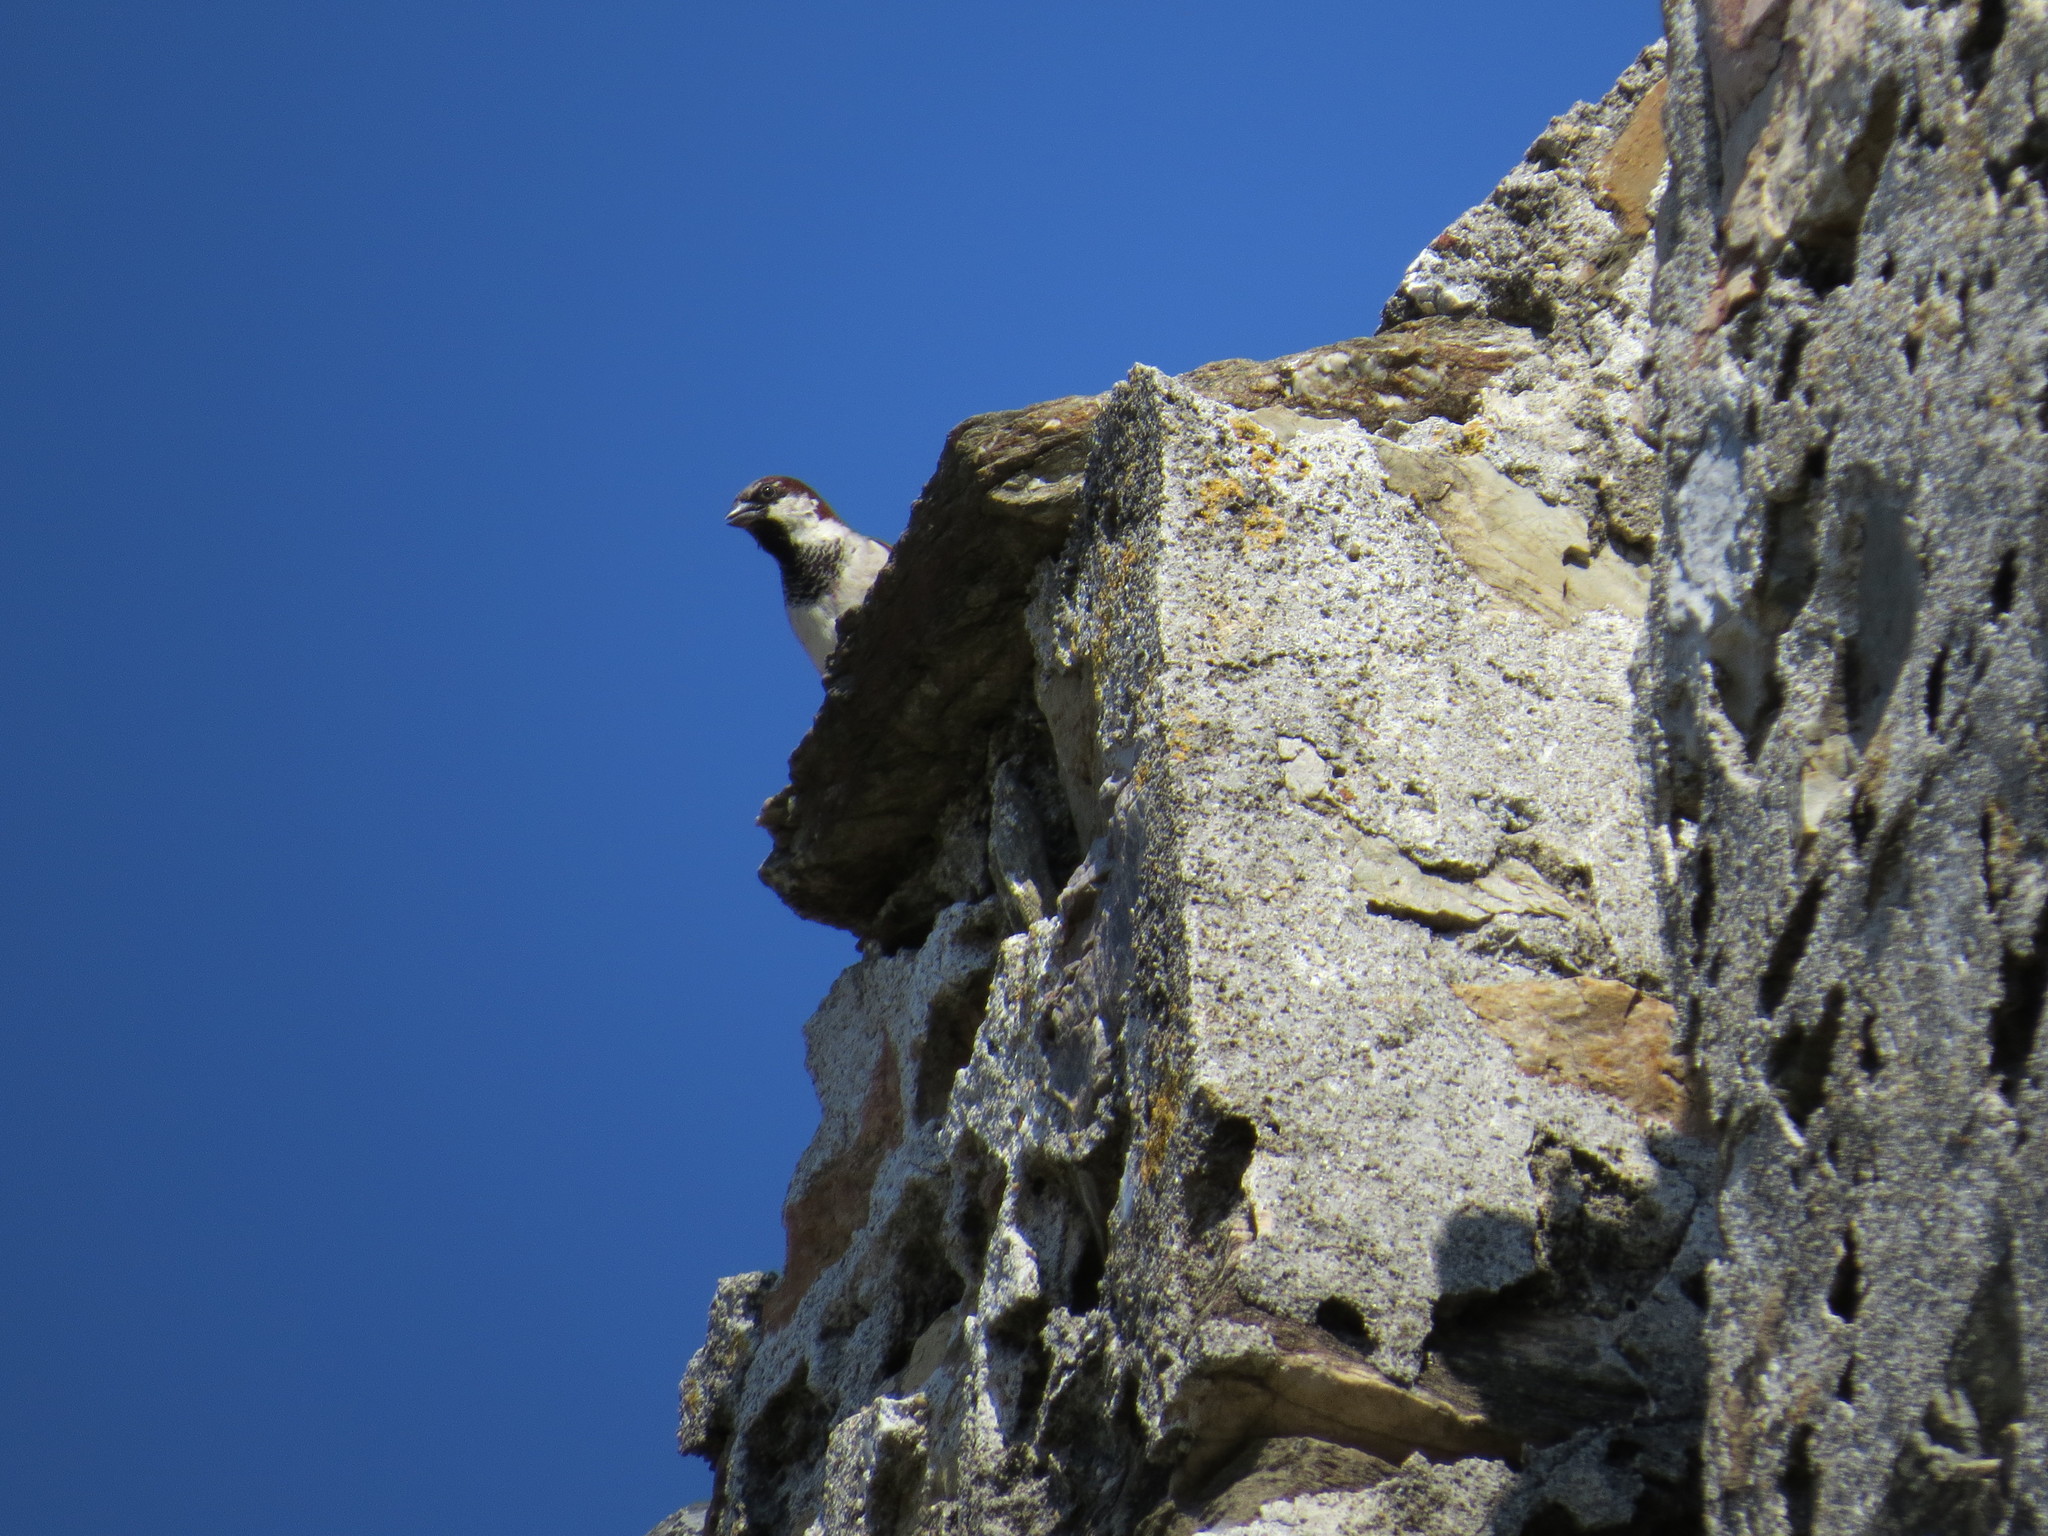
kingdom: Animalia
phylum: Chordata
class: Aves
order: Passeriformes
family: Passeridae
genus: Passer
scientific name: Passer domesticus
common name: House sparrow
